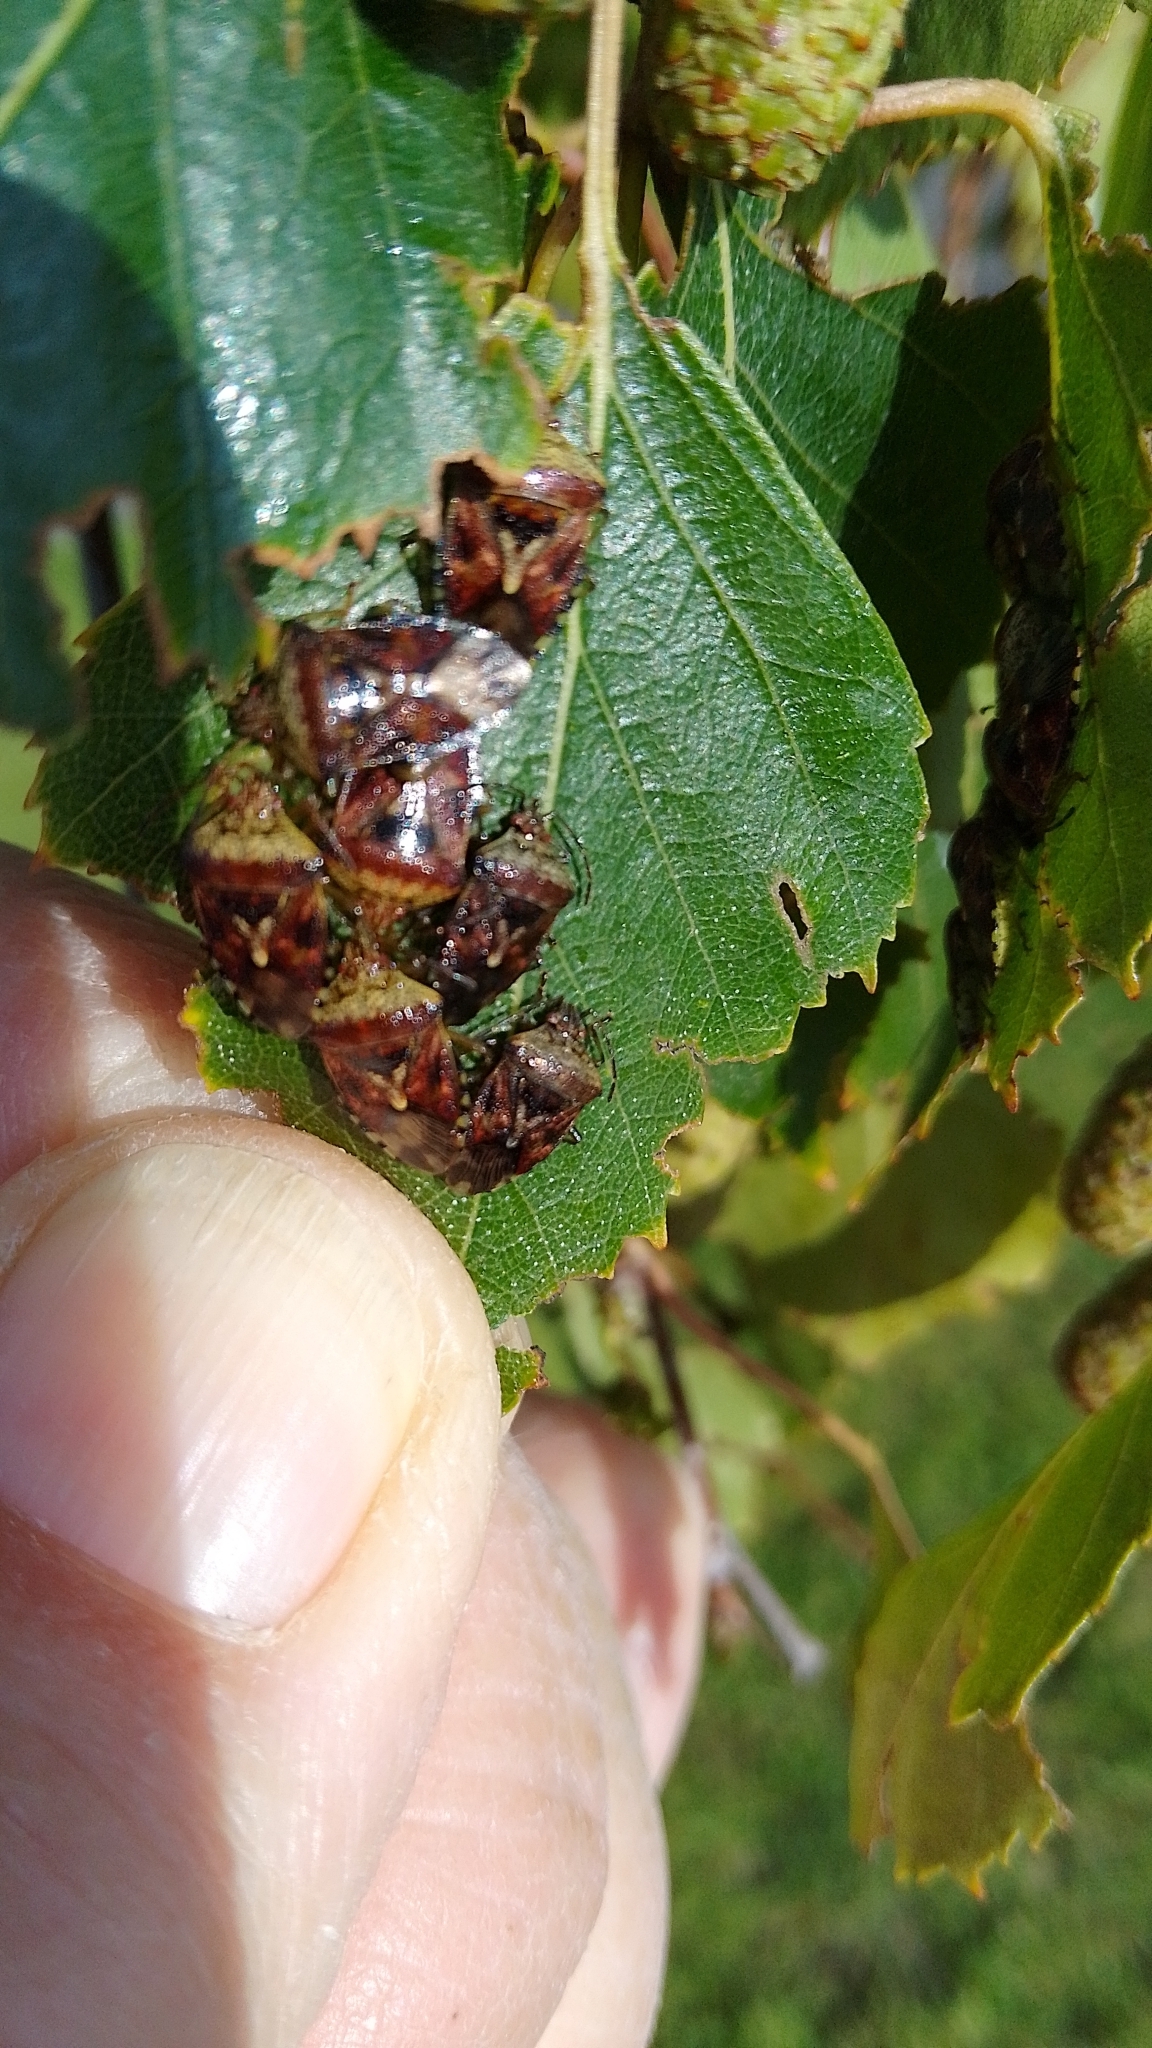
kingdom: Animalia
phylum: Arthropoda
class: Insecta
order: Hemiptera
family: Acanthosomatidae
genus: Elasmucha
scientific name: Elasmucha grisea
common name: Parent bug
